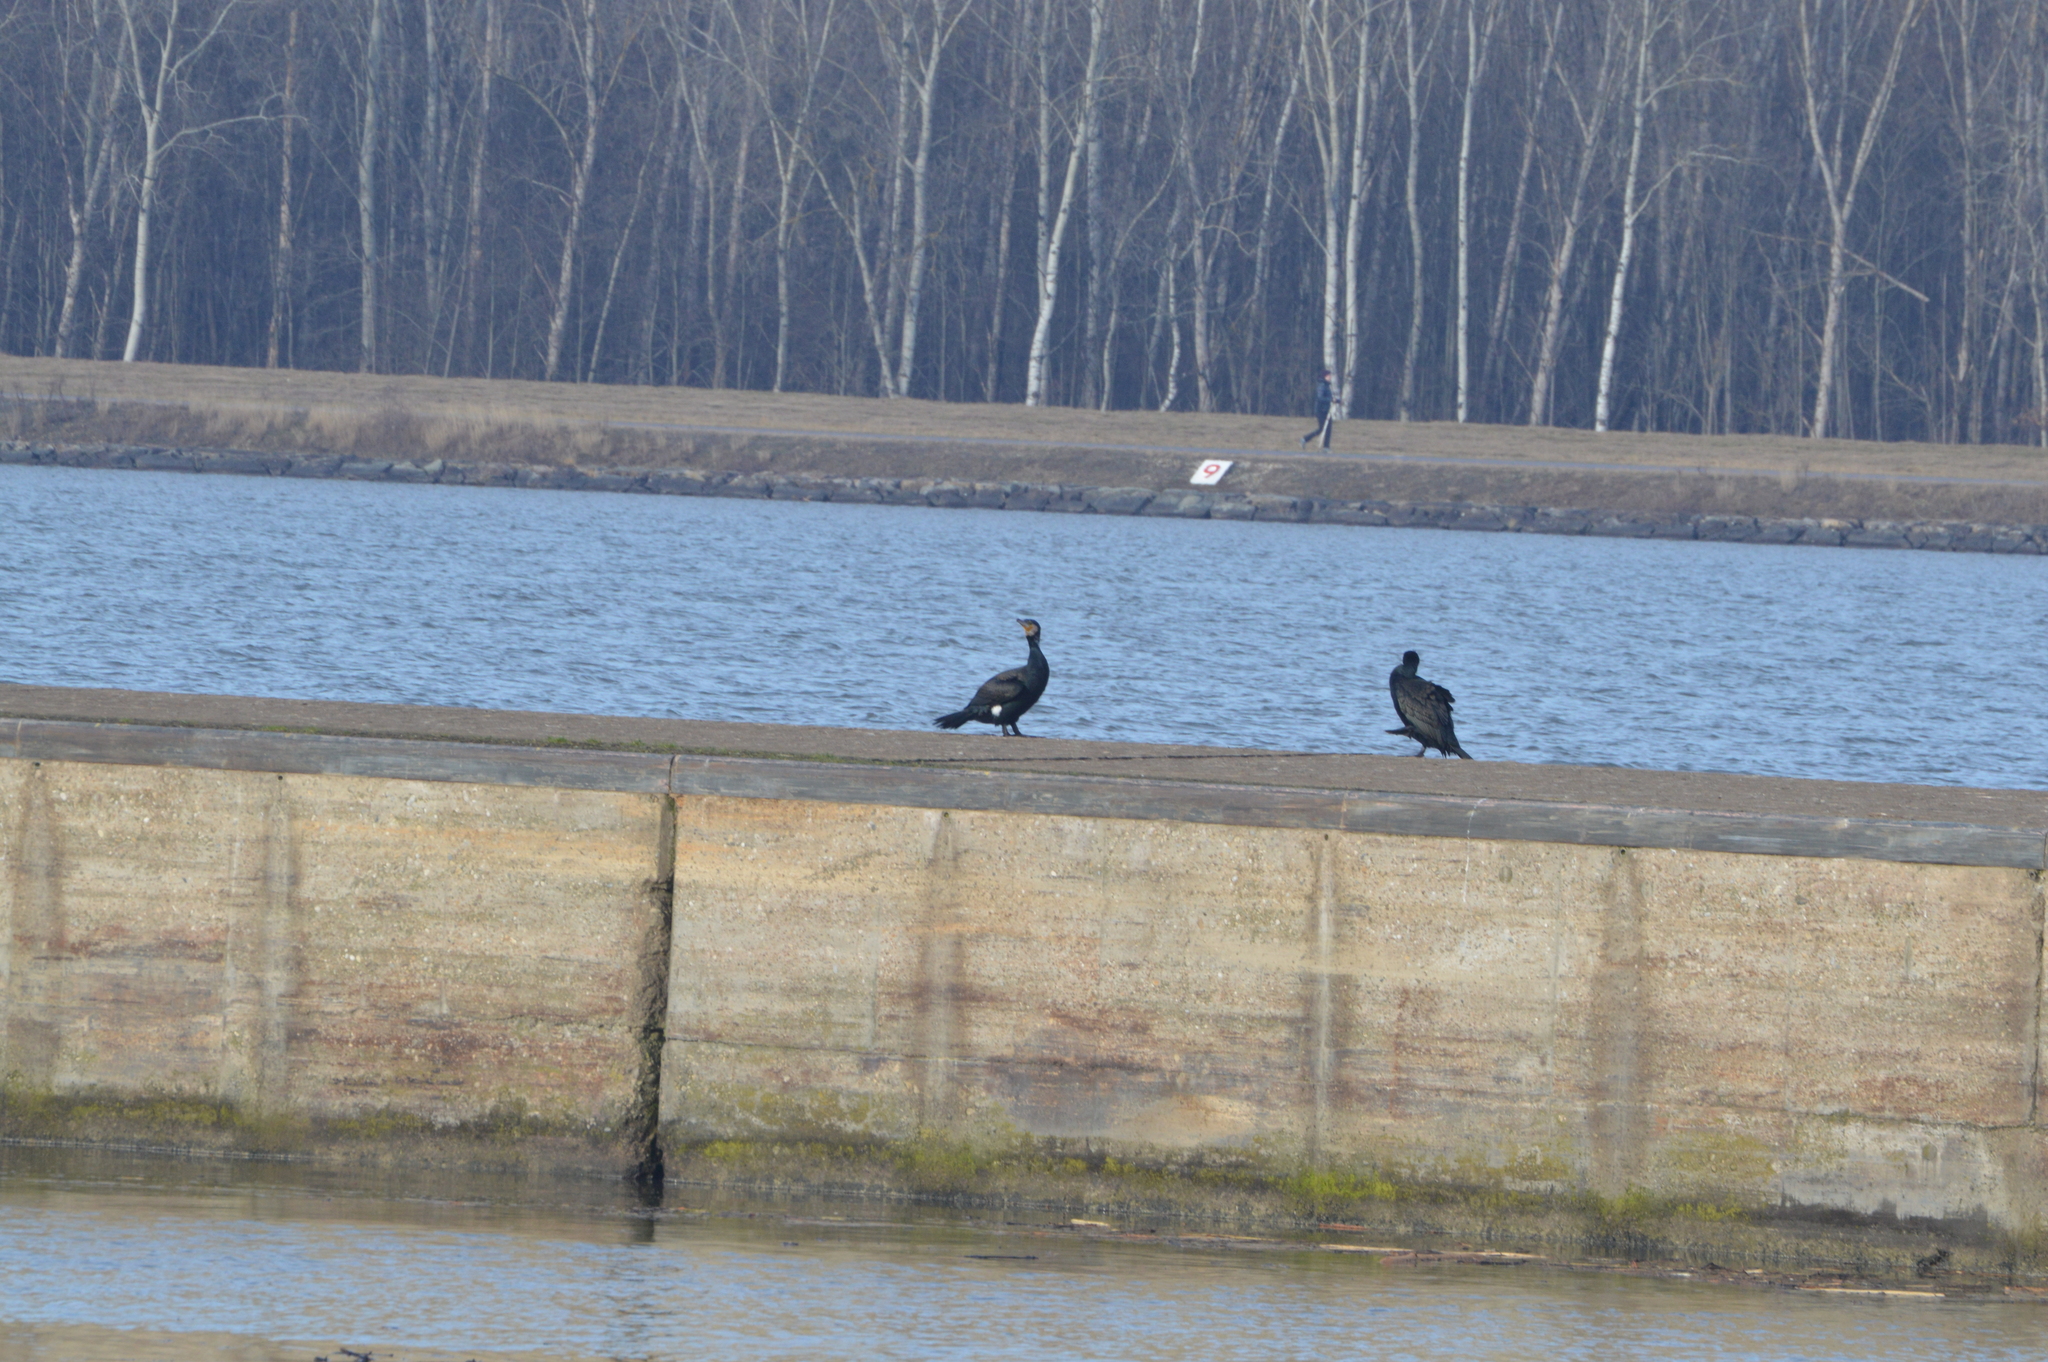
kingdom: Animalia
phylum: Chordata
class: Aves
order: Suliformes
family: Phalacrocoracidae
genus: Phalacrocorax
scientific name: Phalacrocorax carbo
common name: Great cormorant
